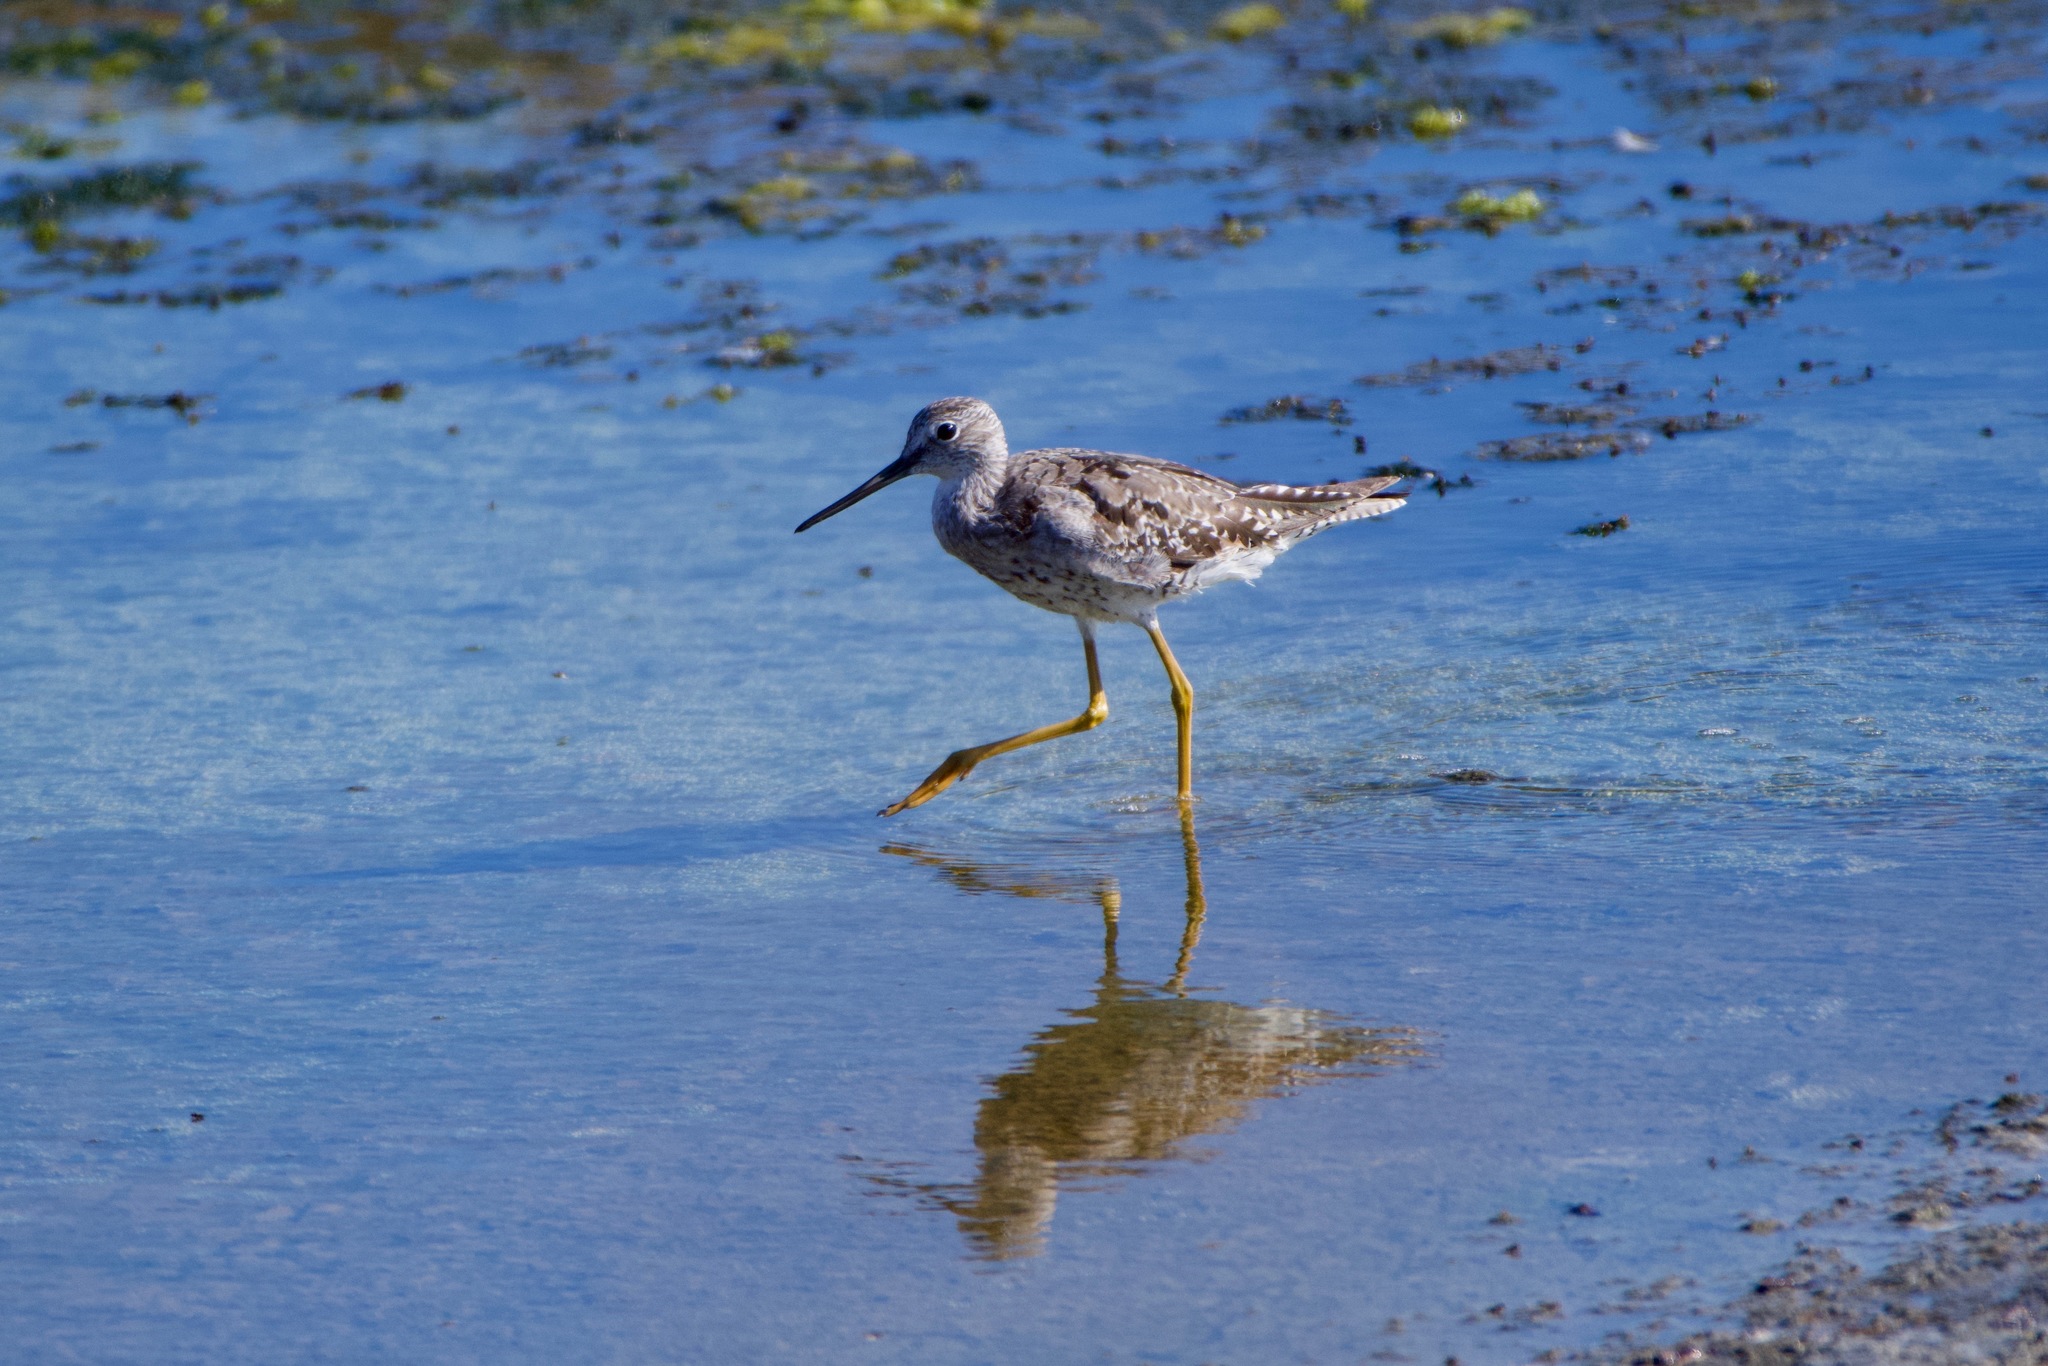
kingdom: Animalia
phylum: Chordata
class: Aves
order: Charadriiformes
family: Scolopacidae
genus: Tringa
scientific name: Tringa melanoleuca
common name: Greater yellowlegs
